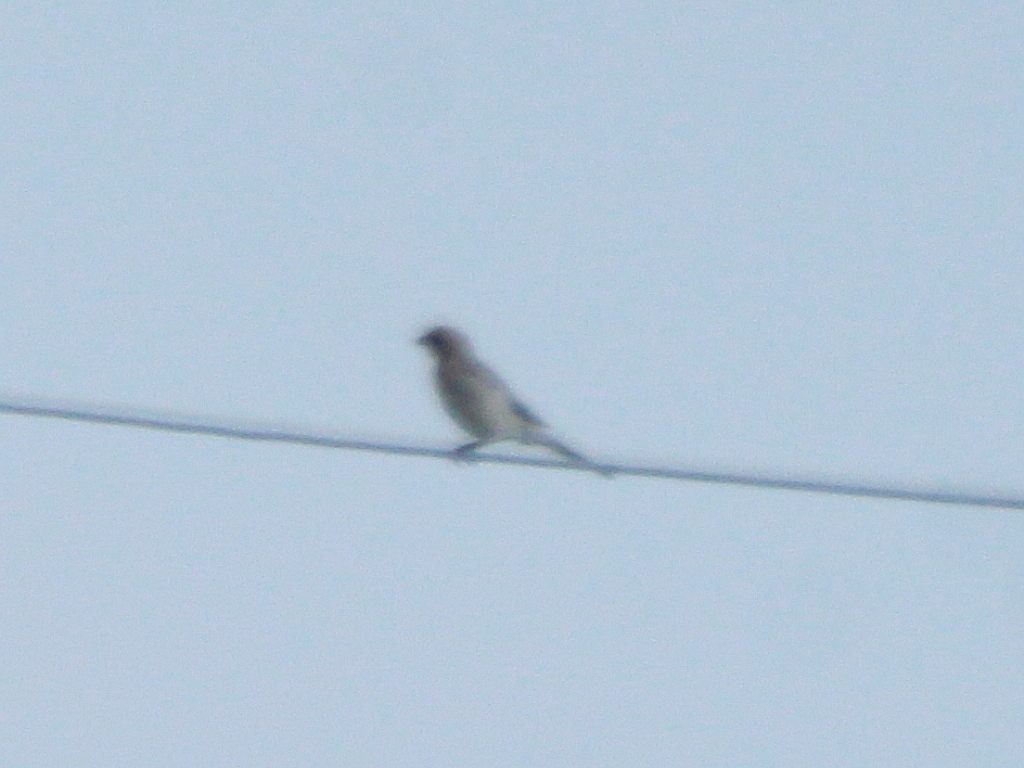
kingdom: Animalia
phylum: Chordata
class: Aves
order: Passeriformes
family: Laniidae
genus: Lanius
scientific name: Lanius excubitor
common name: Great grey shrike
